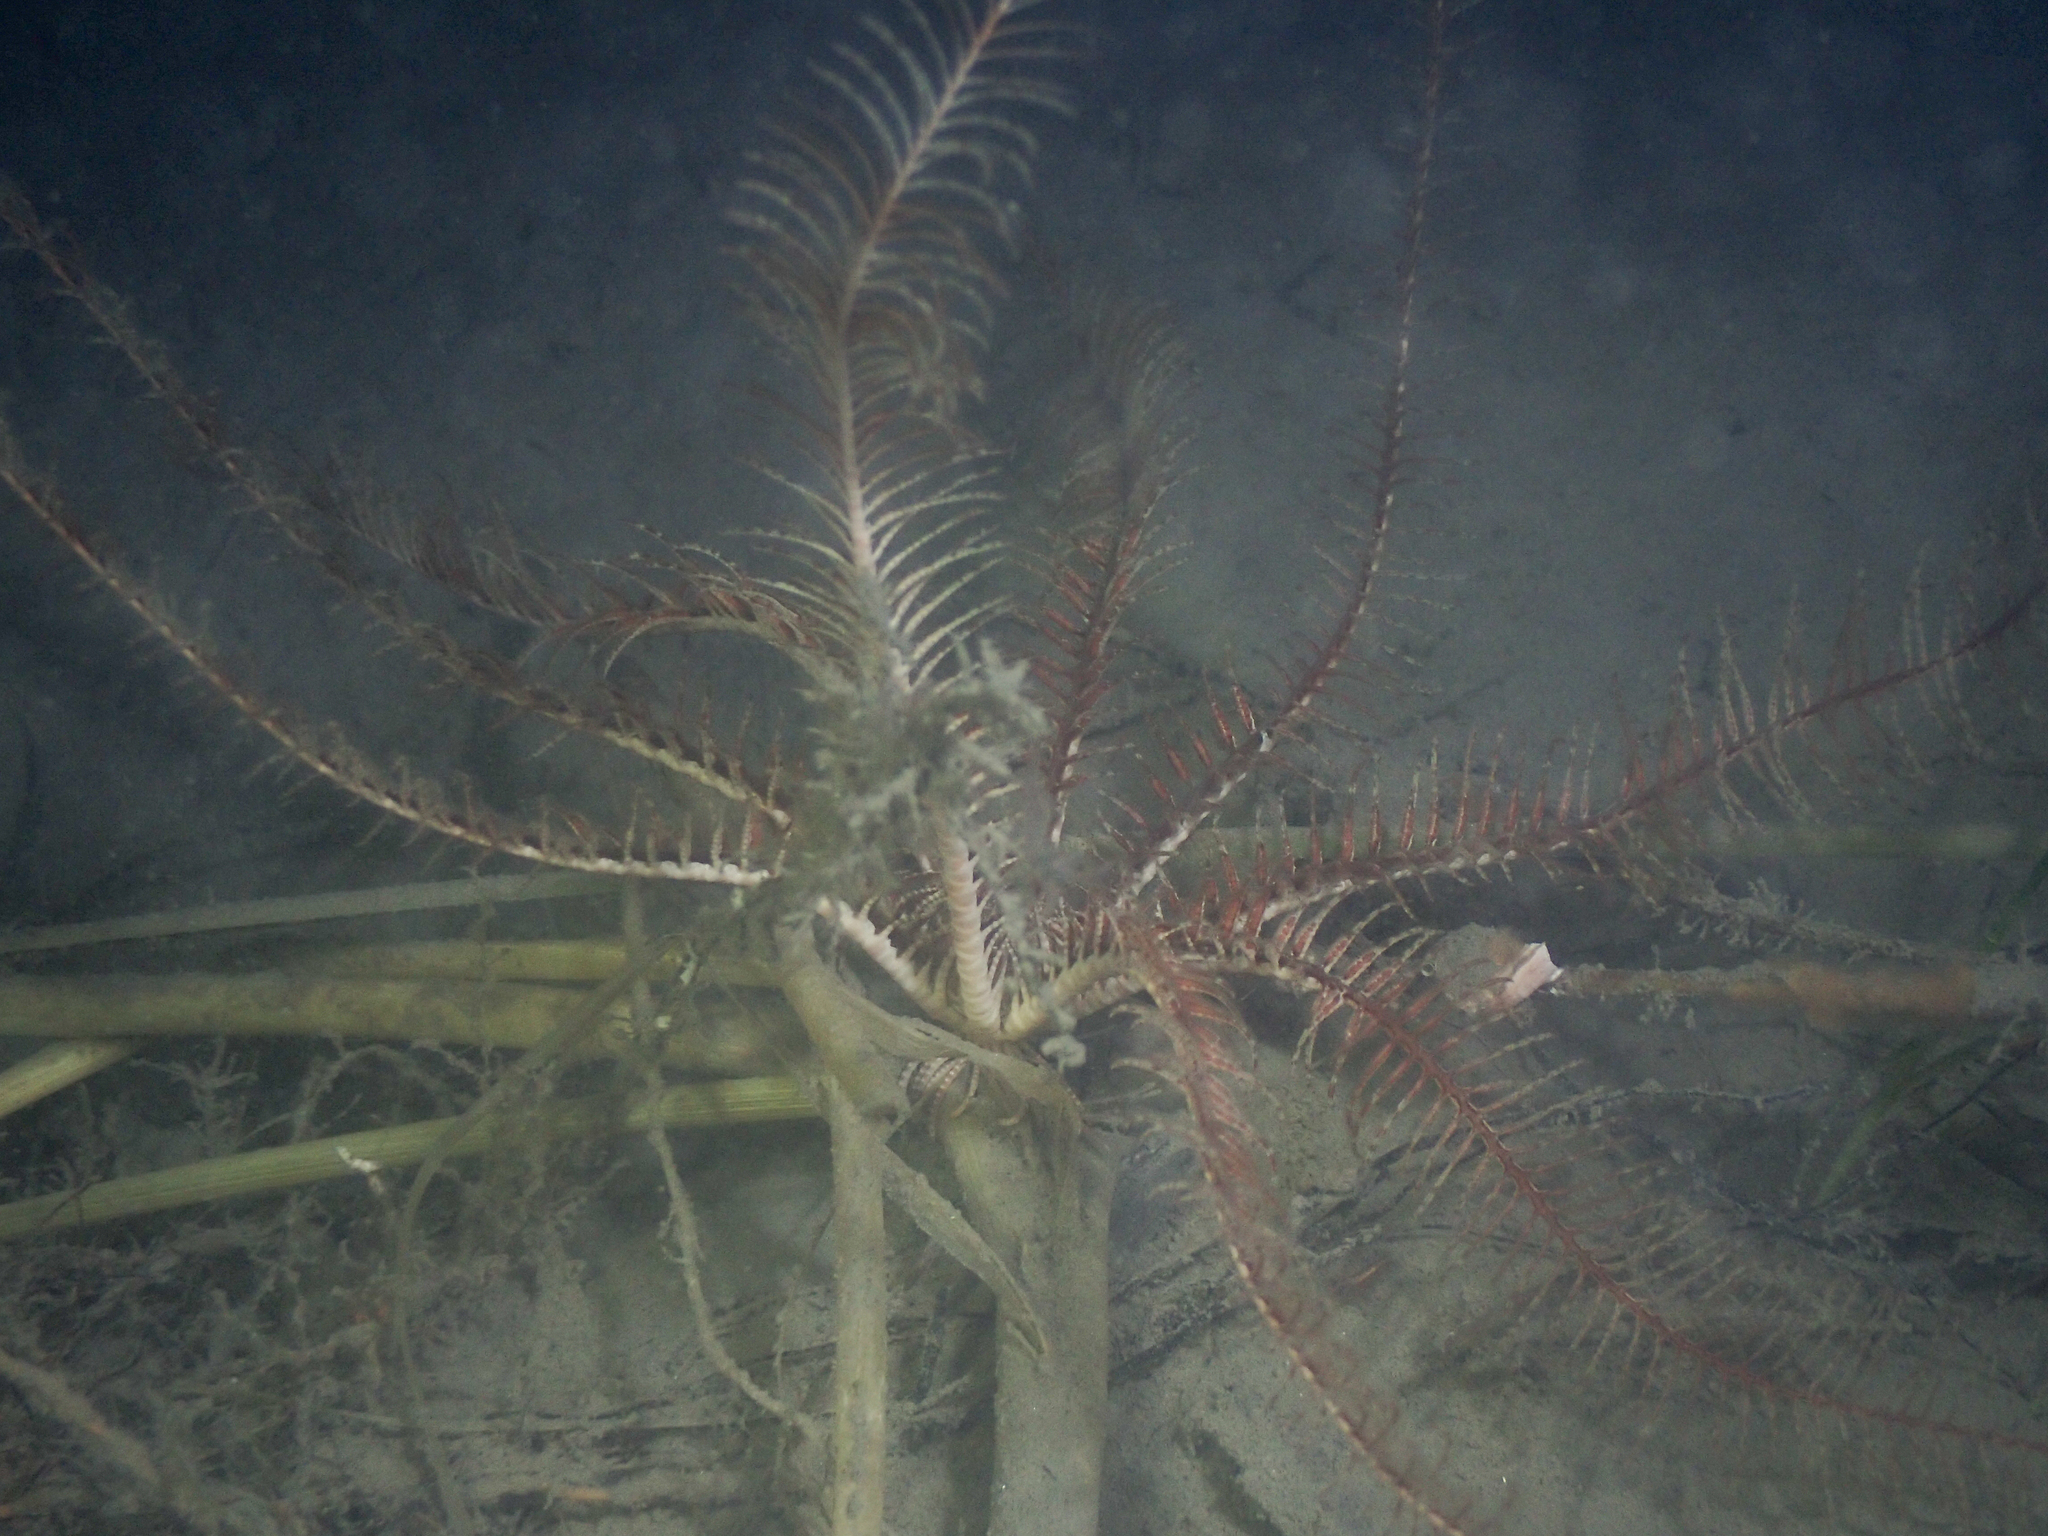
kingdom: Animalia
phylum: Echinodermata
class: Crinoidea
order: Comatulida
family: Antedonidae
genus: Antedon
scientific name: Antedon mediterranea
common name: Feather star
